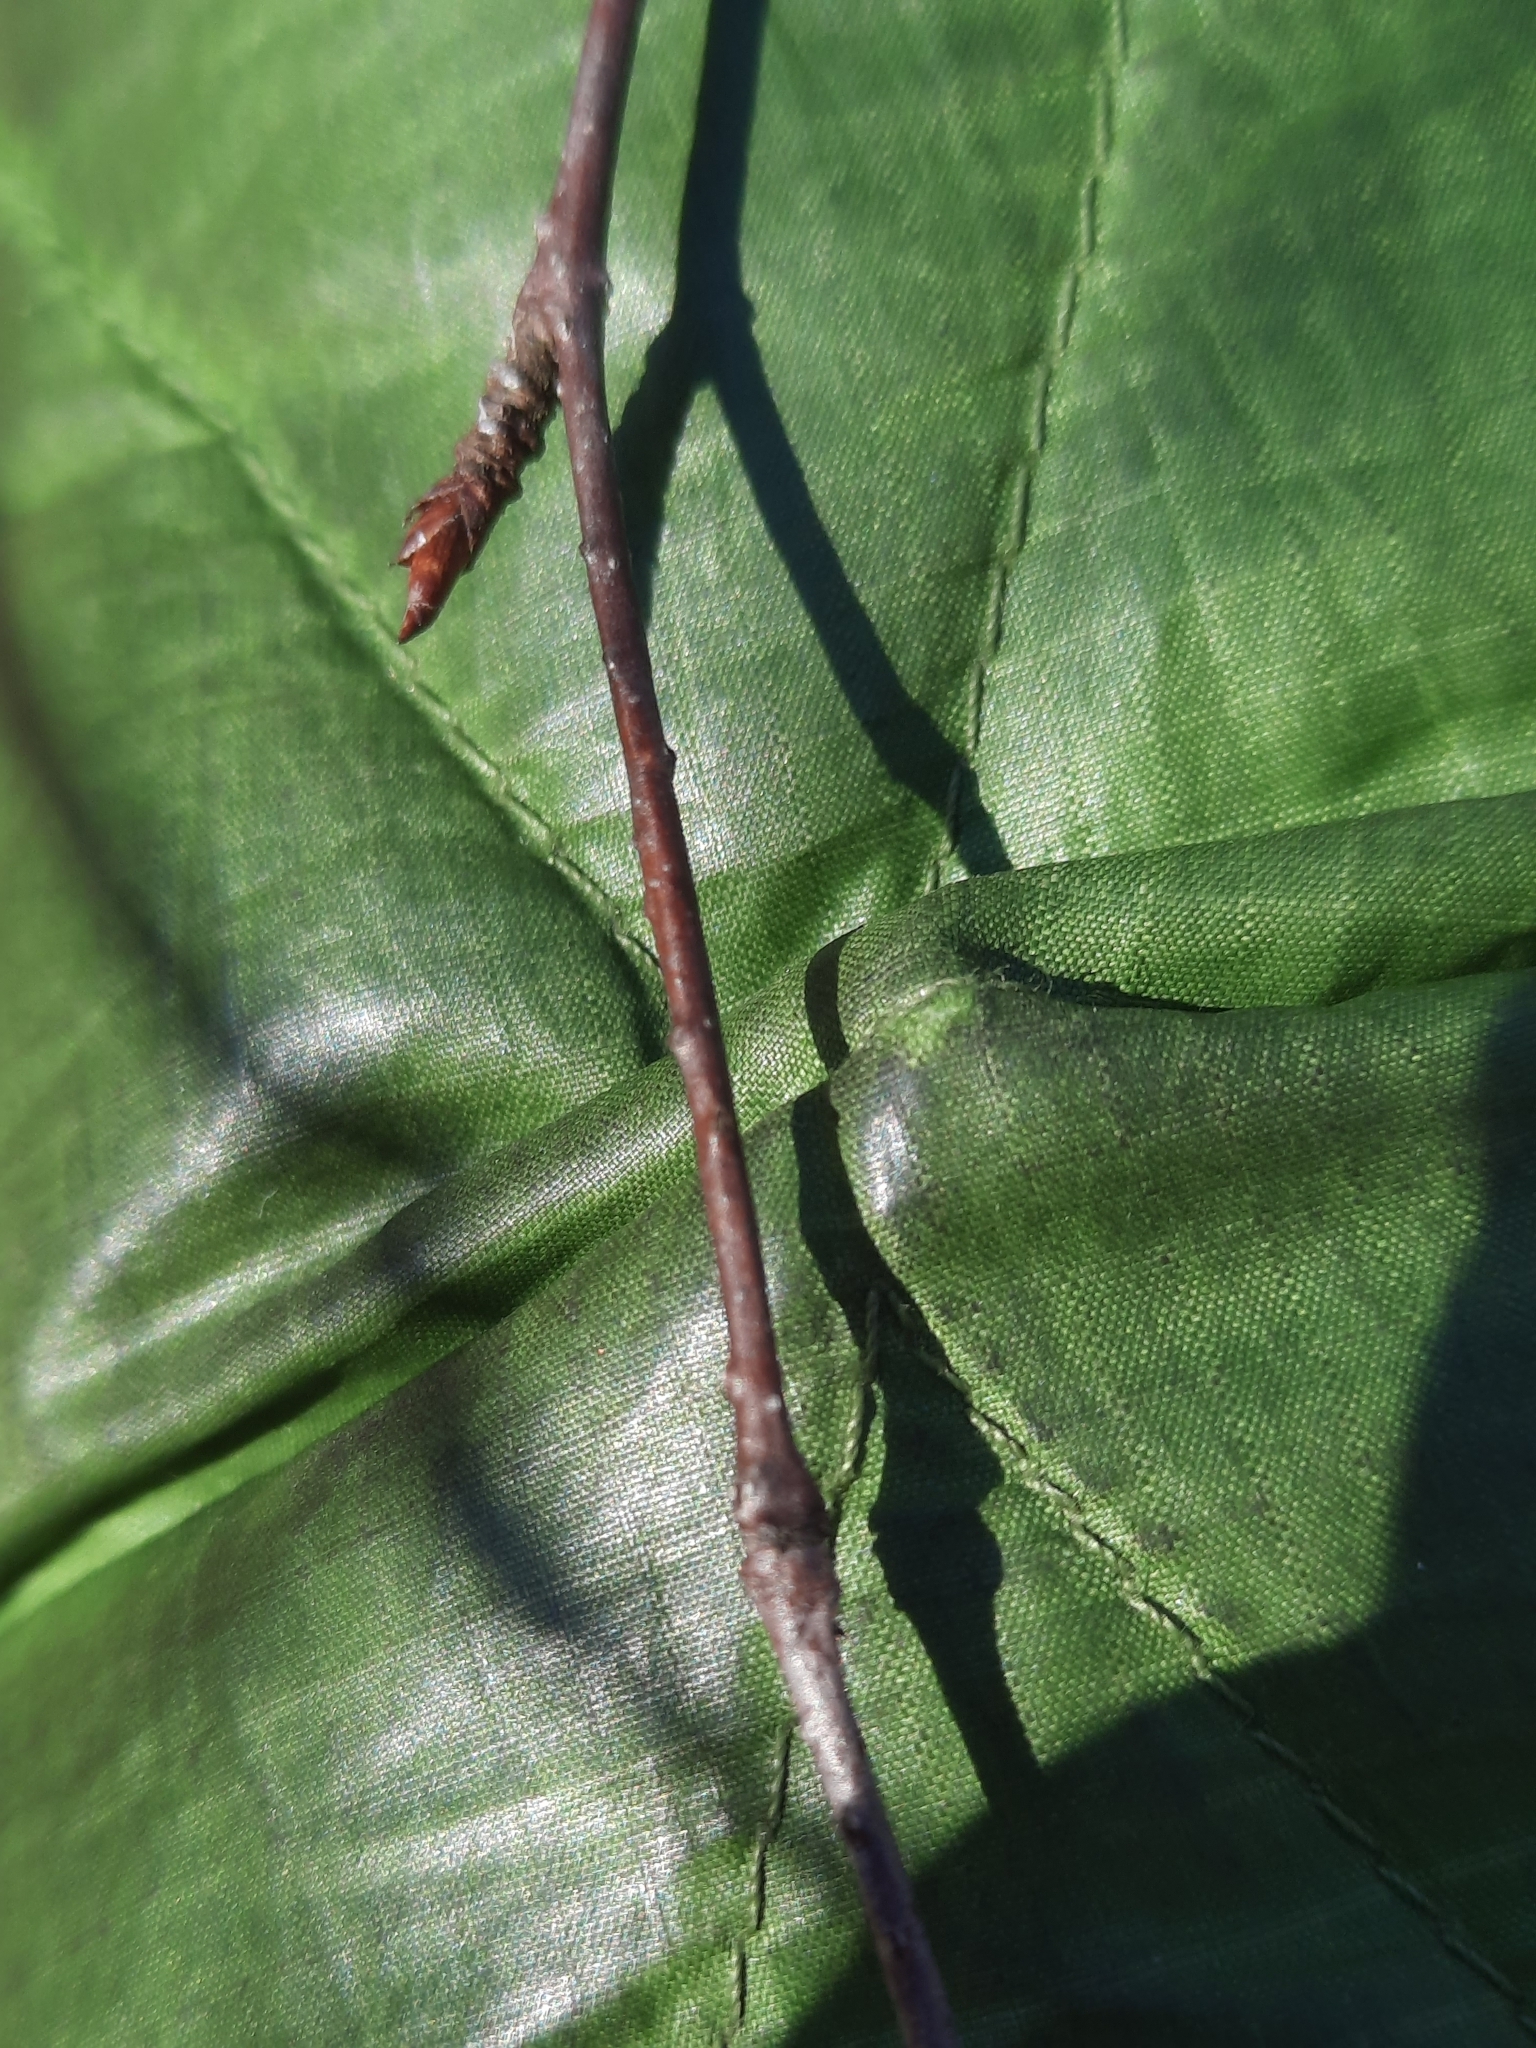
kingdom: Plantae
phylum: Tracheophyta
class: Magnoliopsida
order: Fagales
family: Betulaceae
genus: Betula
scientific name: Betula alleghaniensis
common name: Yellow birch
